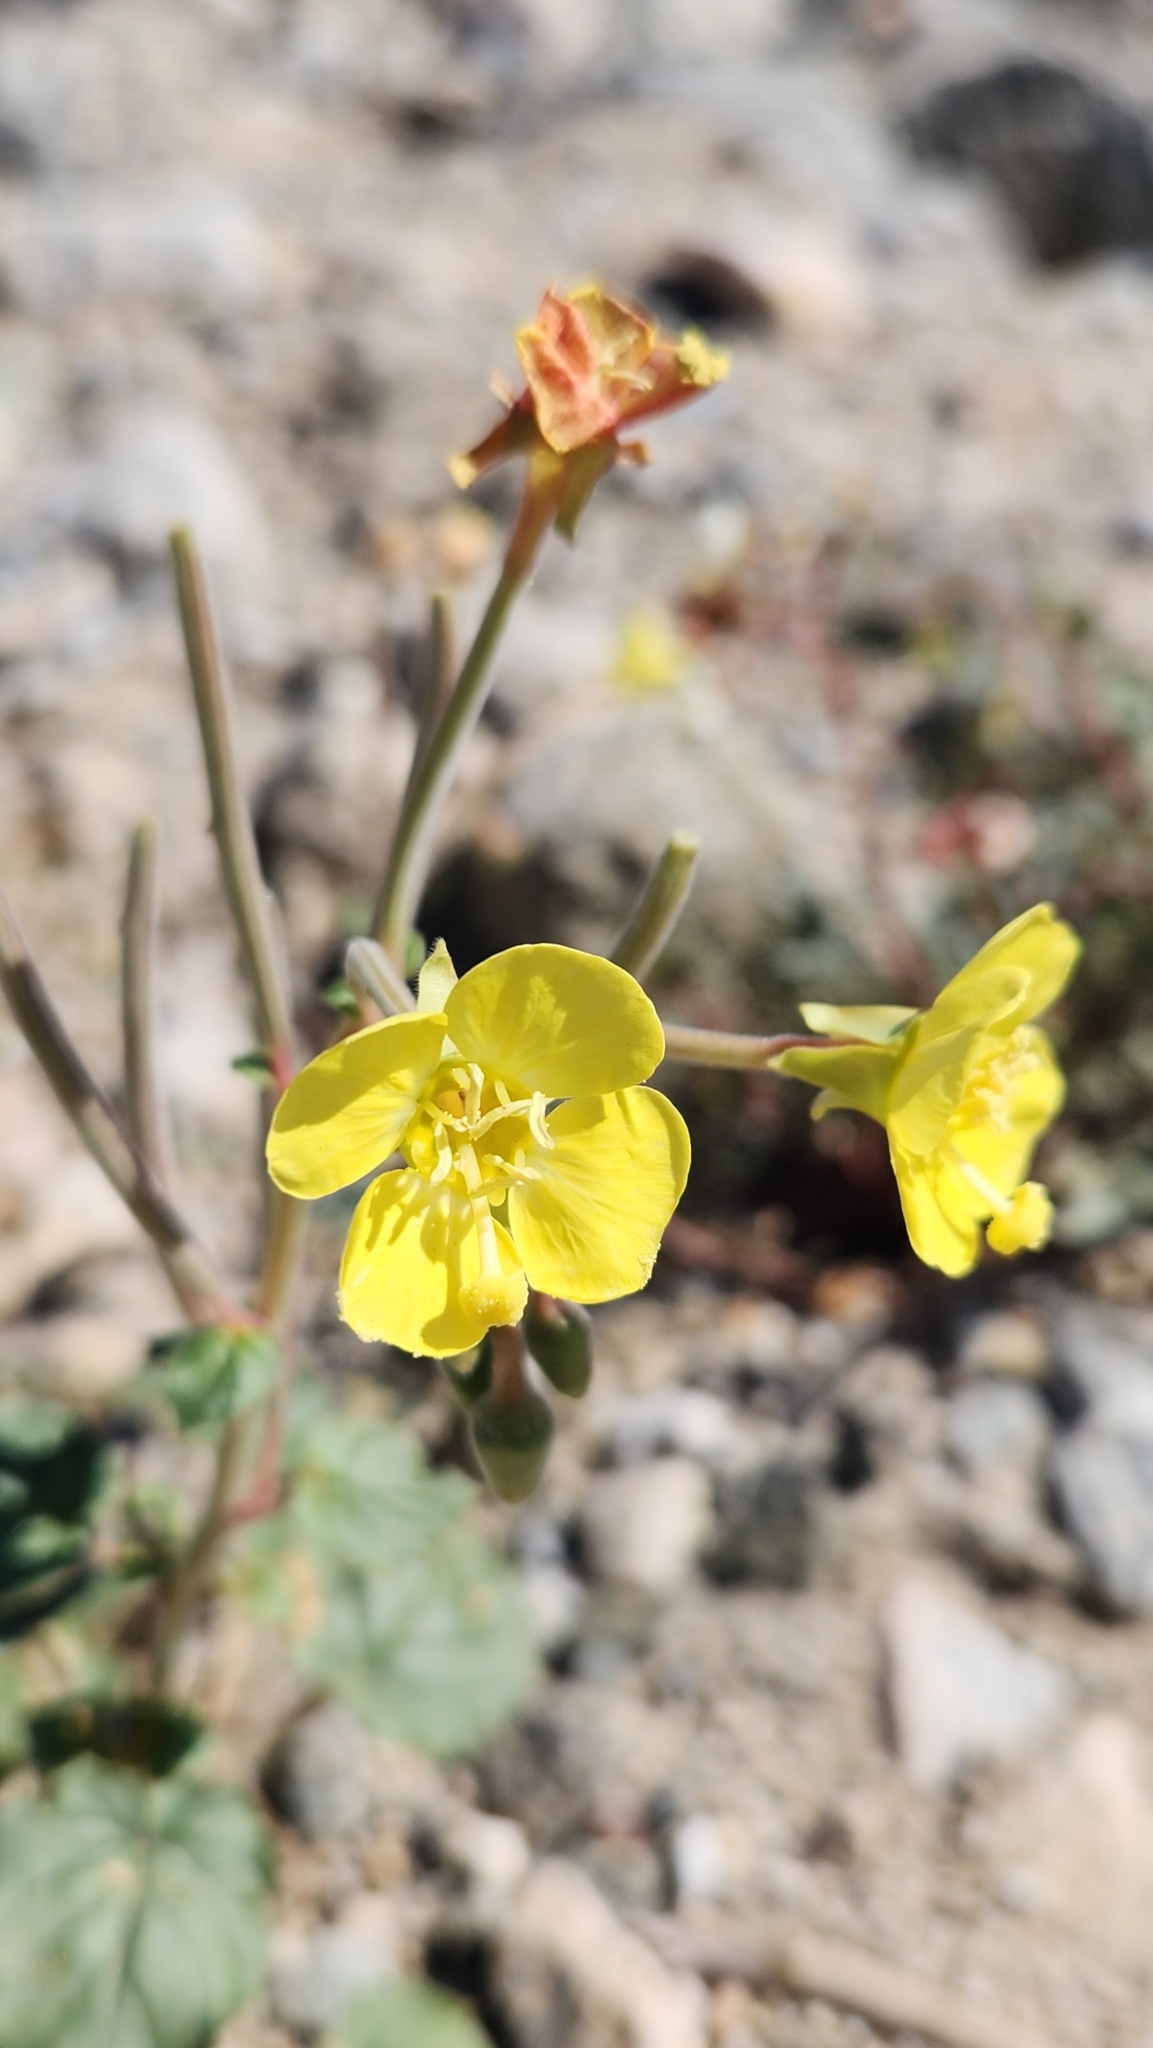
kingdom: Plantae
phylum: Tracheophyta
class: Magnoliopsida
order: Myrtales
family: Onagraceae
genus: Chylismia
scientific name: Chylismia cardiophylla
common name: Heartleaf suncup
